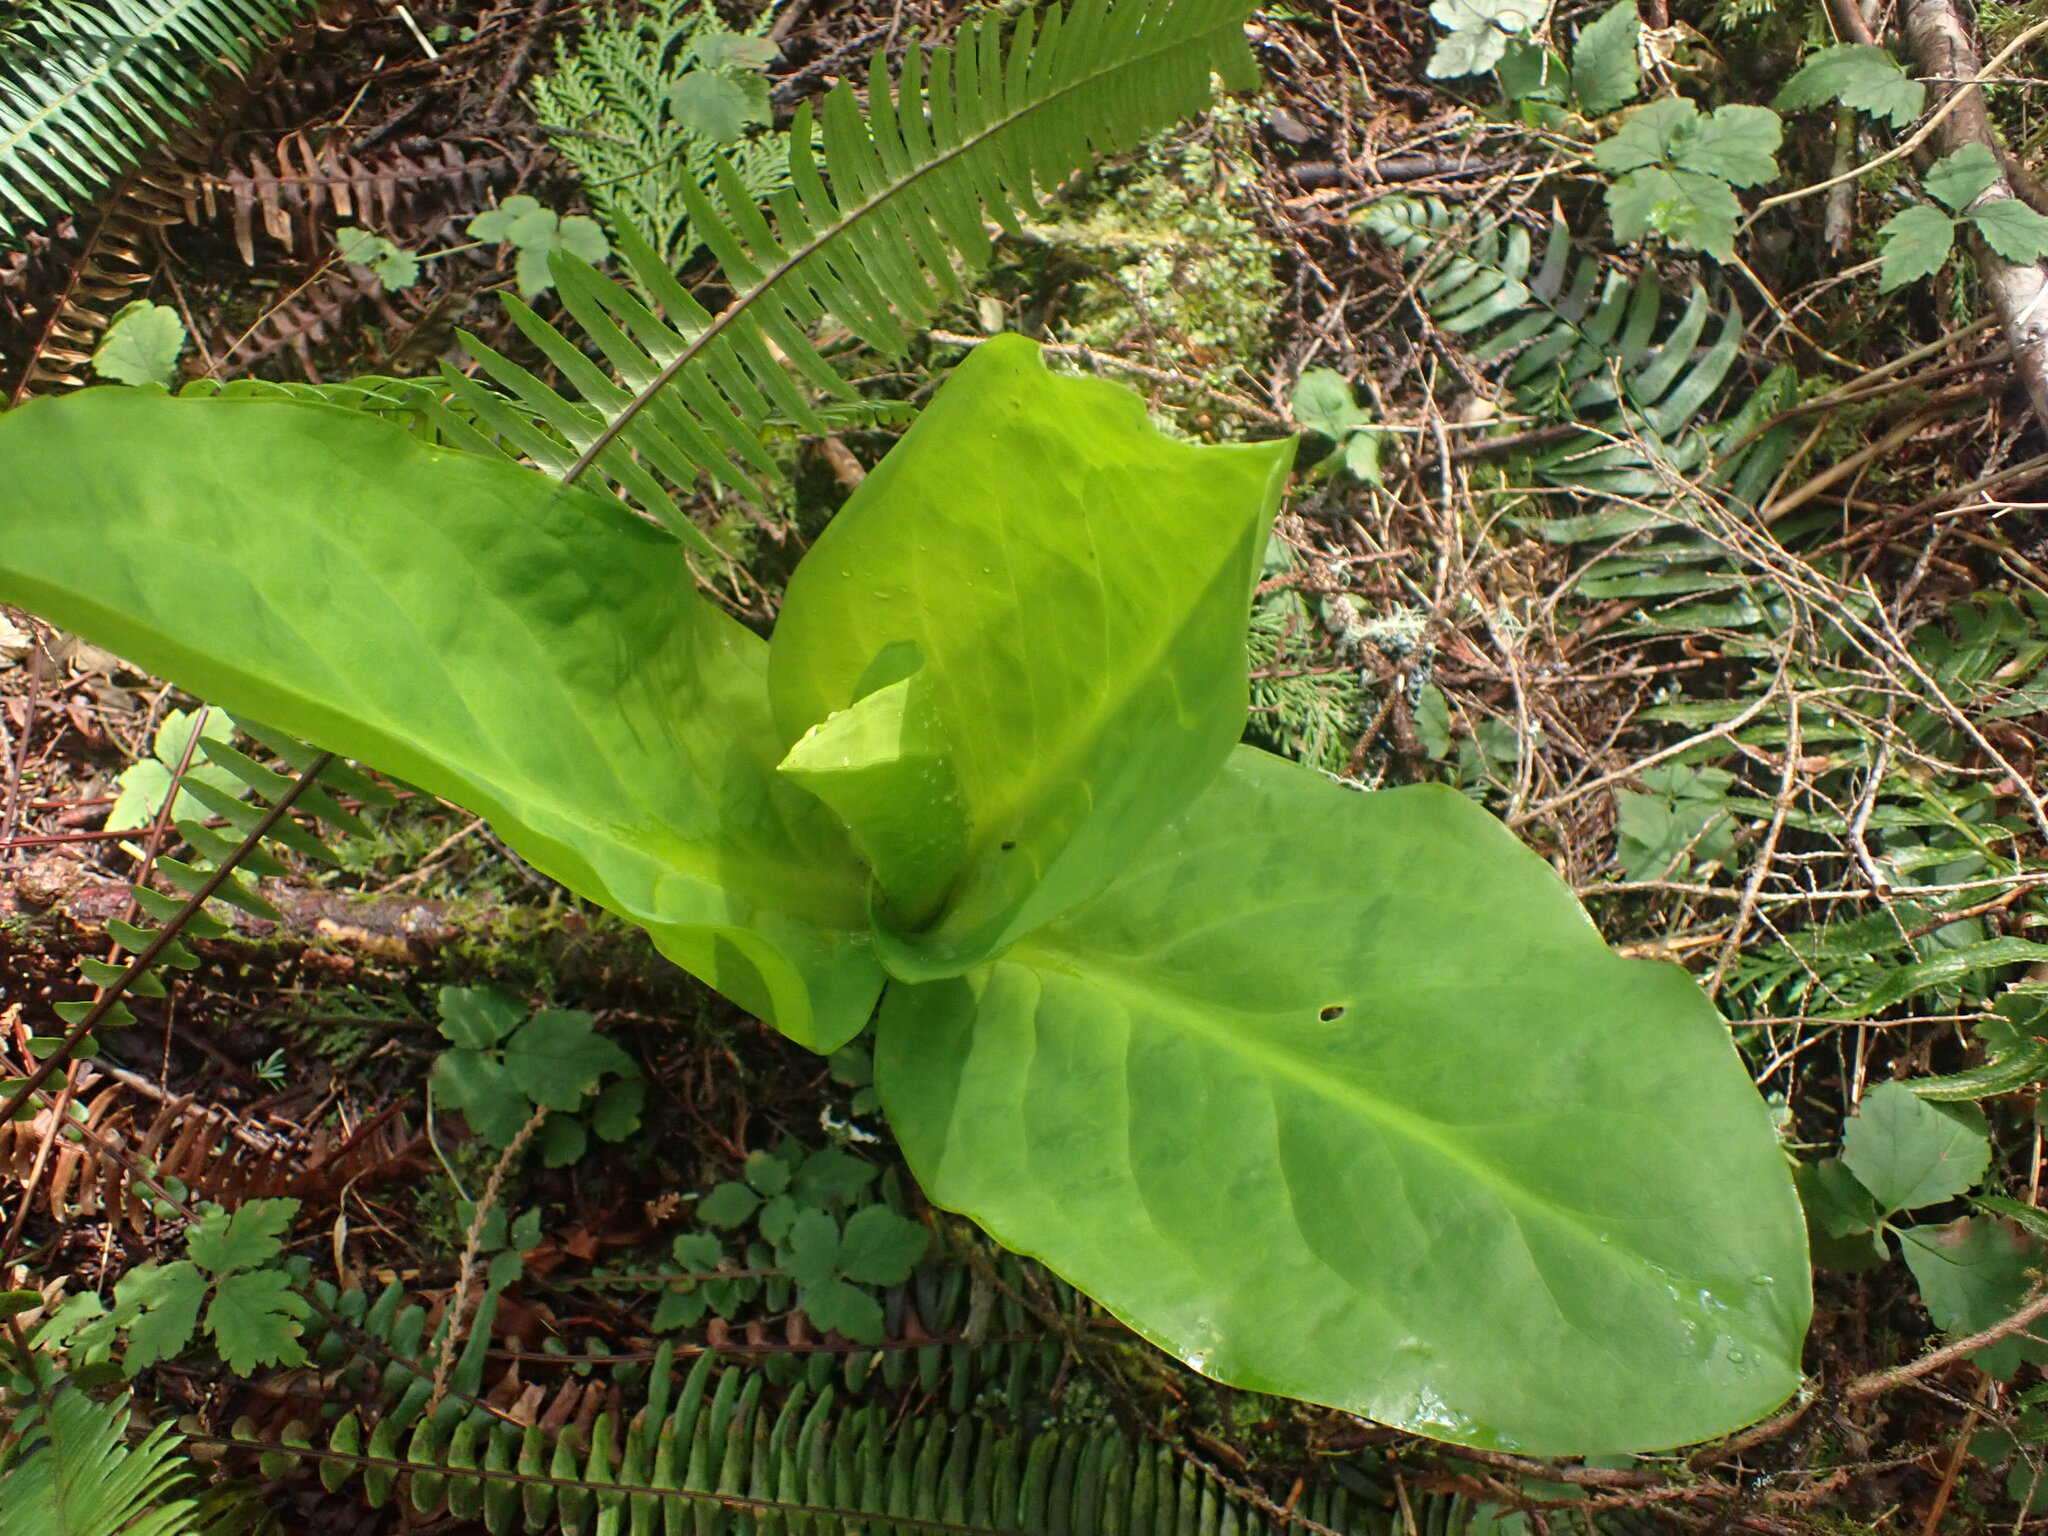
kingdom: Plantae
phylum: Tracheophyta
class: Liliopsida
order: Alismatales
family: Araceae
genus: Lysichiton
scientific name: Lysichiton americanus
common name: American skunk cabbage
